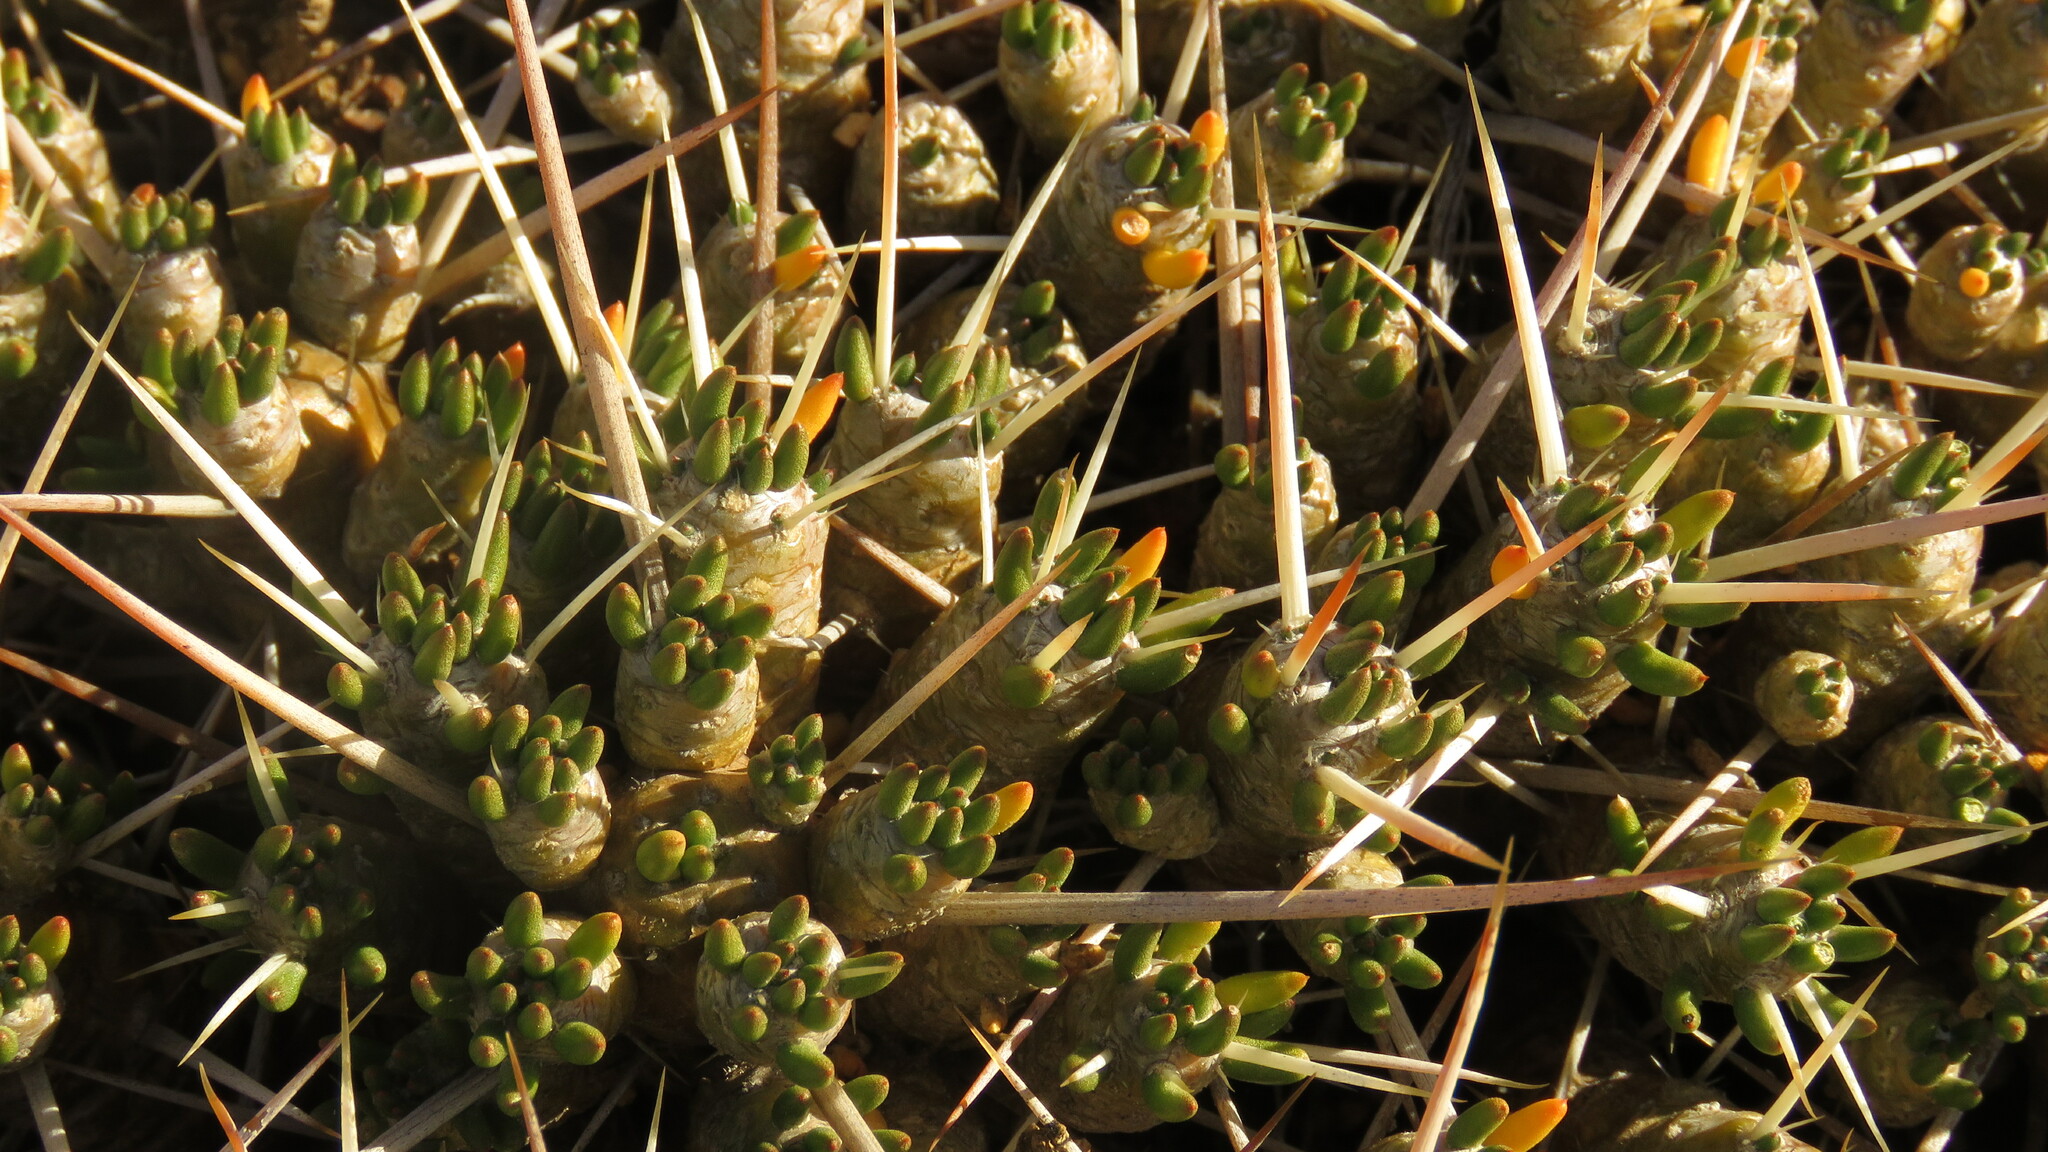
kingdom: Plantae
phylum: Tracheophyta
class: Magnoliopsida
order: Caryophyllales
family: Cactaceae
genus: Maihuenia
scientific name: Maihuenia patagonica
